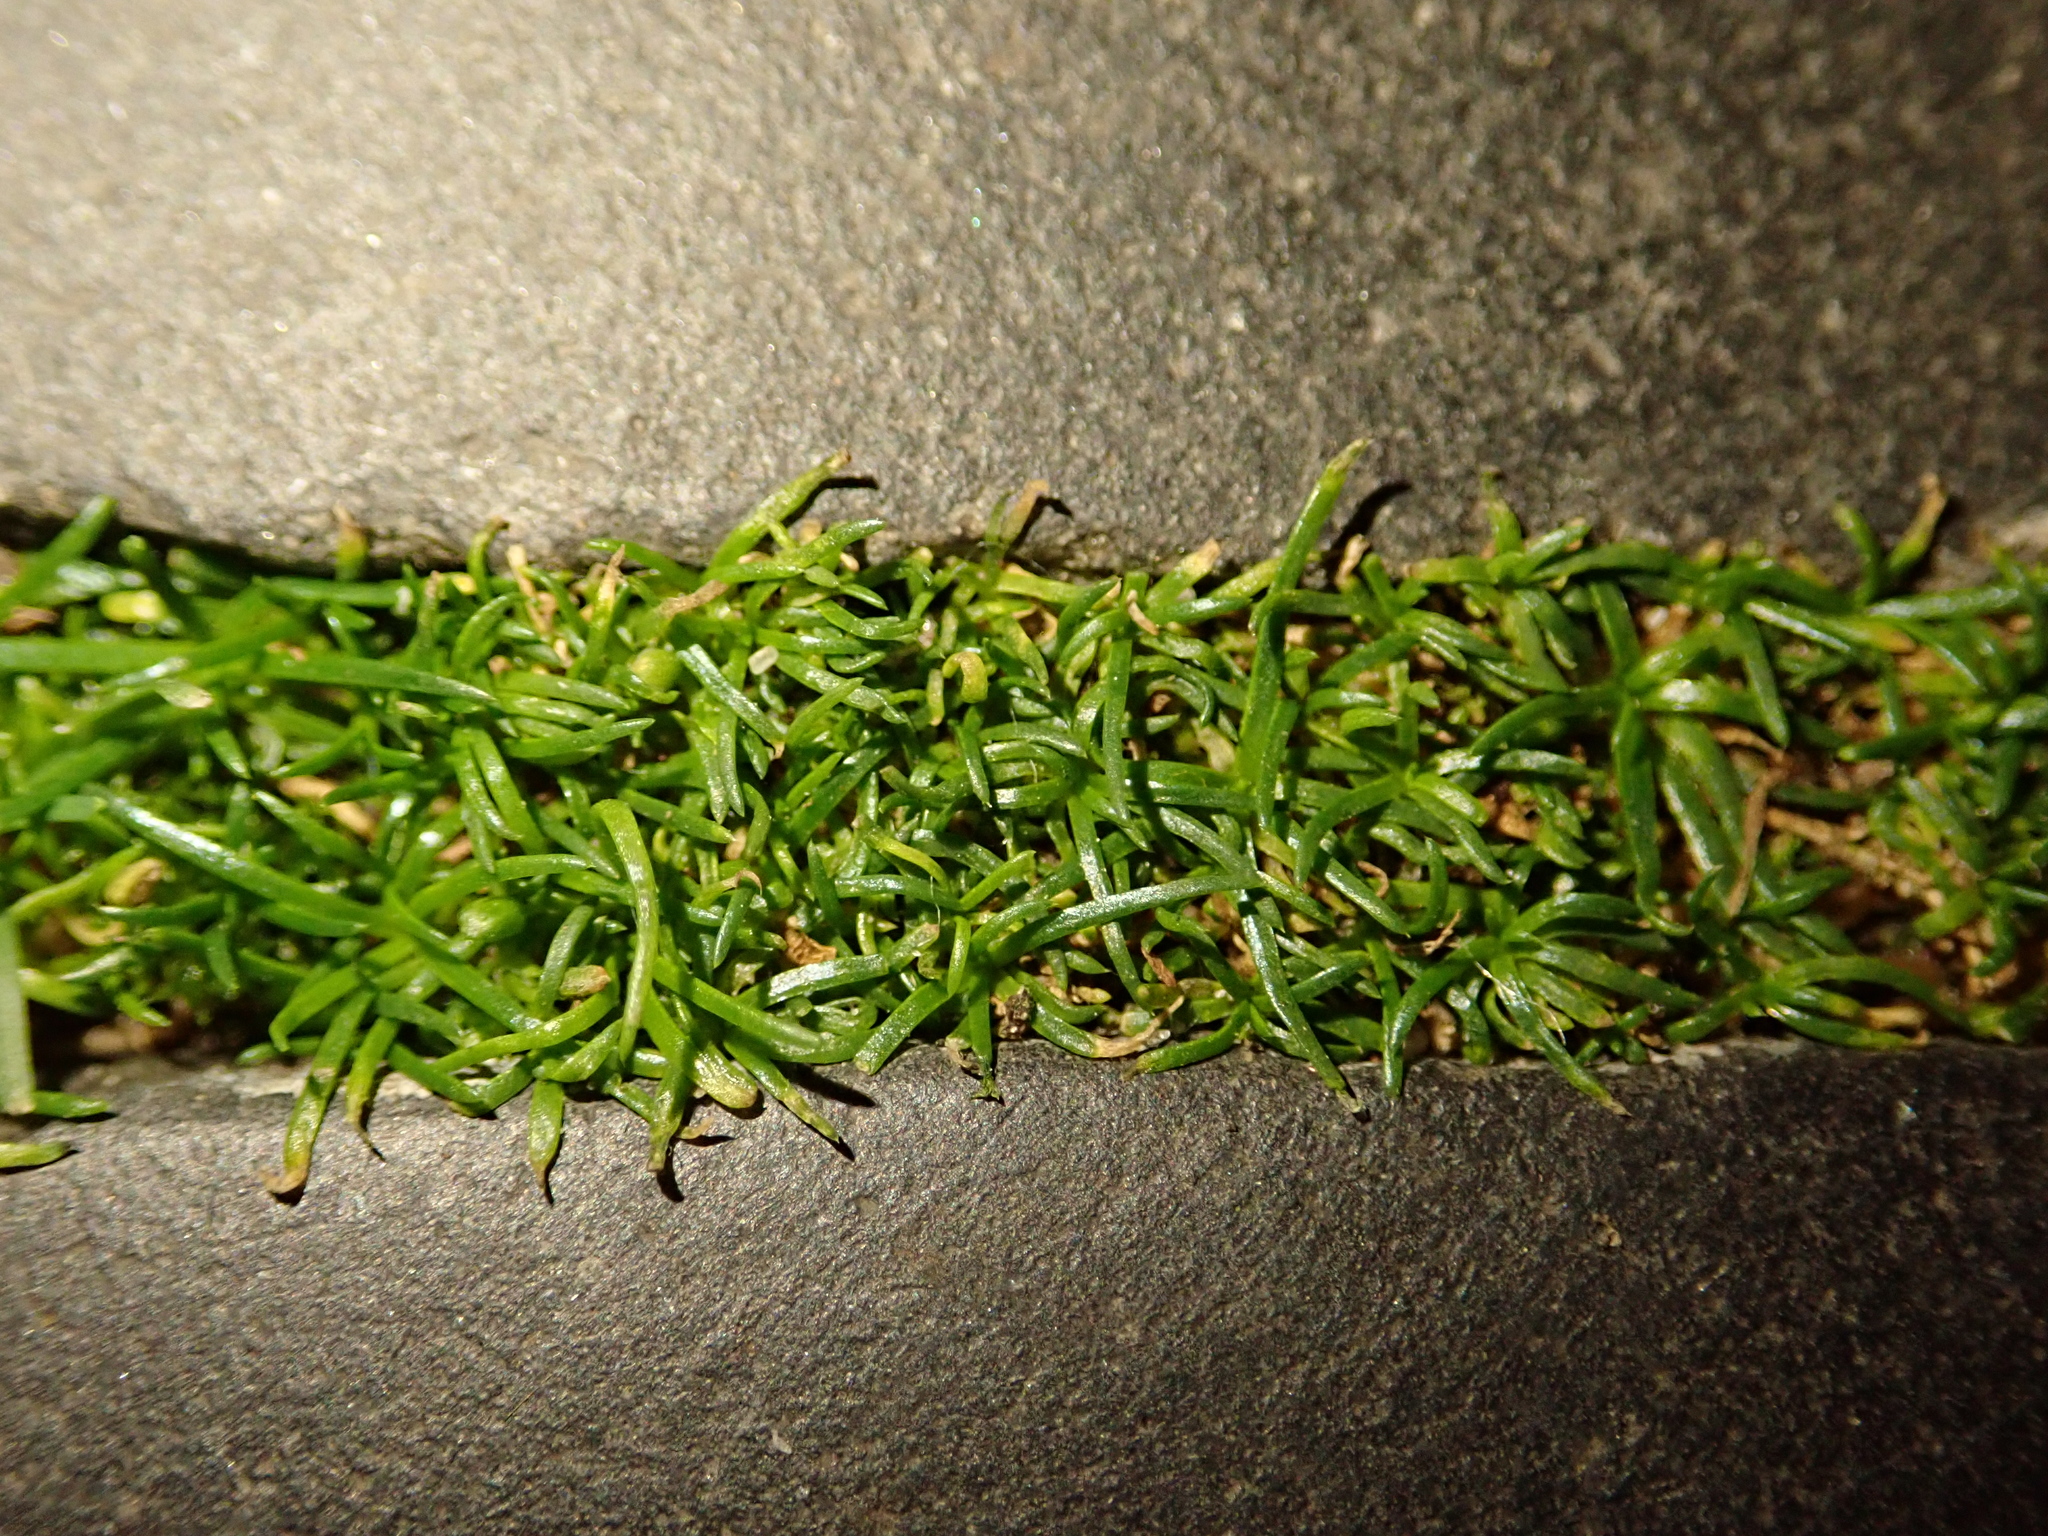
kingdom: Plantae
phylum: Tracheophyta
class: Magnoliopsida
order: Caryophyllales
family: Caryophyllaceae
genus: Sagina
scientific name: Sagina procumbens
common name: Procumbent pearlwort
